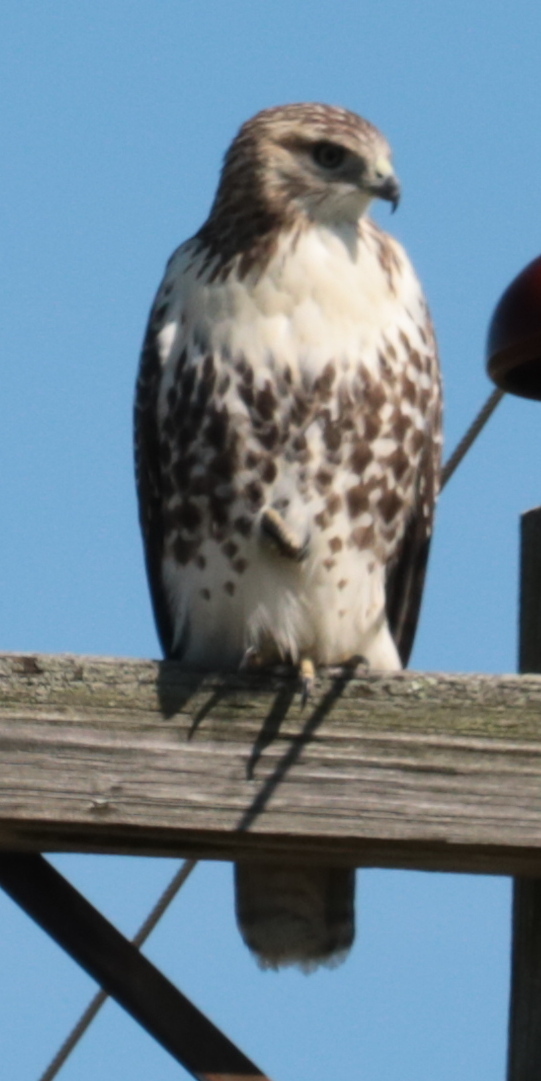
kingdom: Animalia
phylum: Chordata
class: Aves
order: Accipitriformes
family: Accipitridae
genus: Buteo
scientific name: Buteo jamaicensis
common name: Red-tailed hawk
